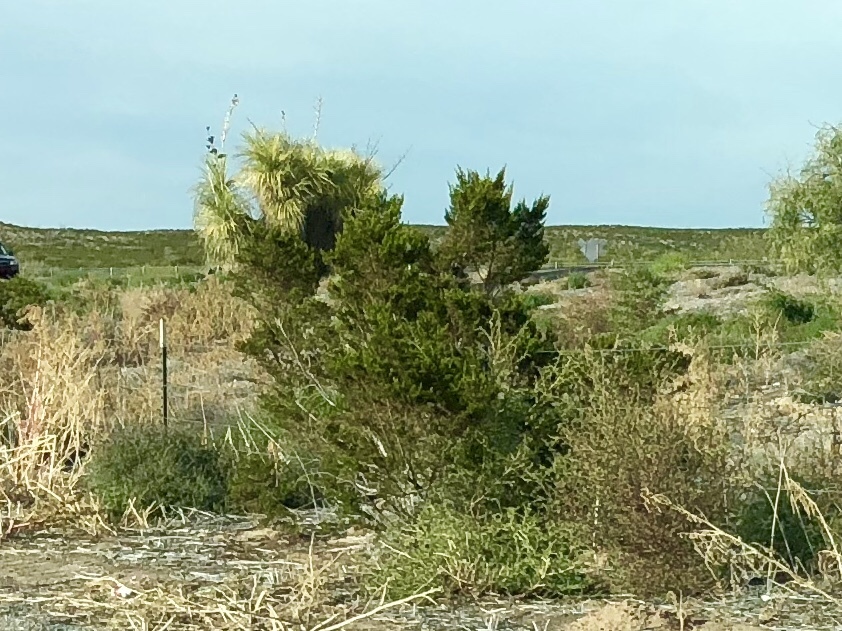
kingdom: Plantae
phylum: Tracheophyta
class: Magnoliopsida
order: Zygophyllales
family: Zygophyllaceae
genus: Larrea
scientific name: Larrea tridentata
